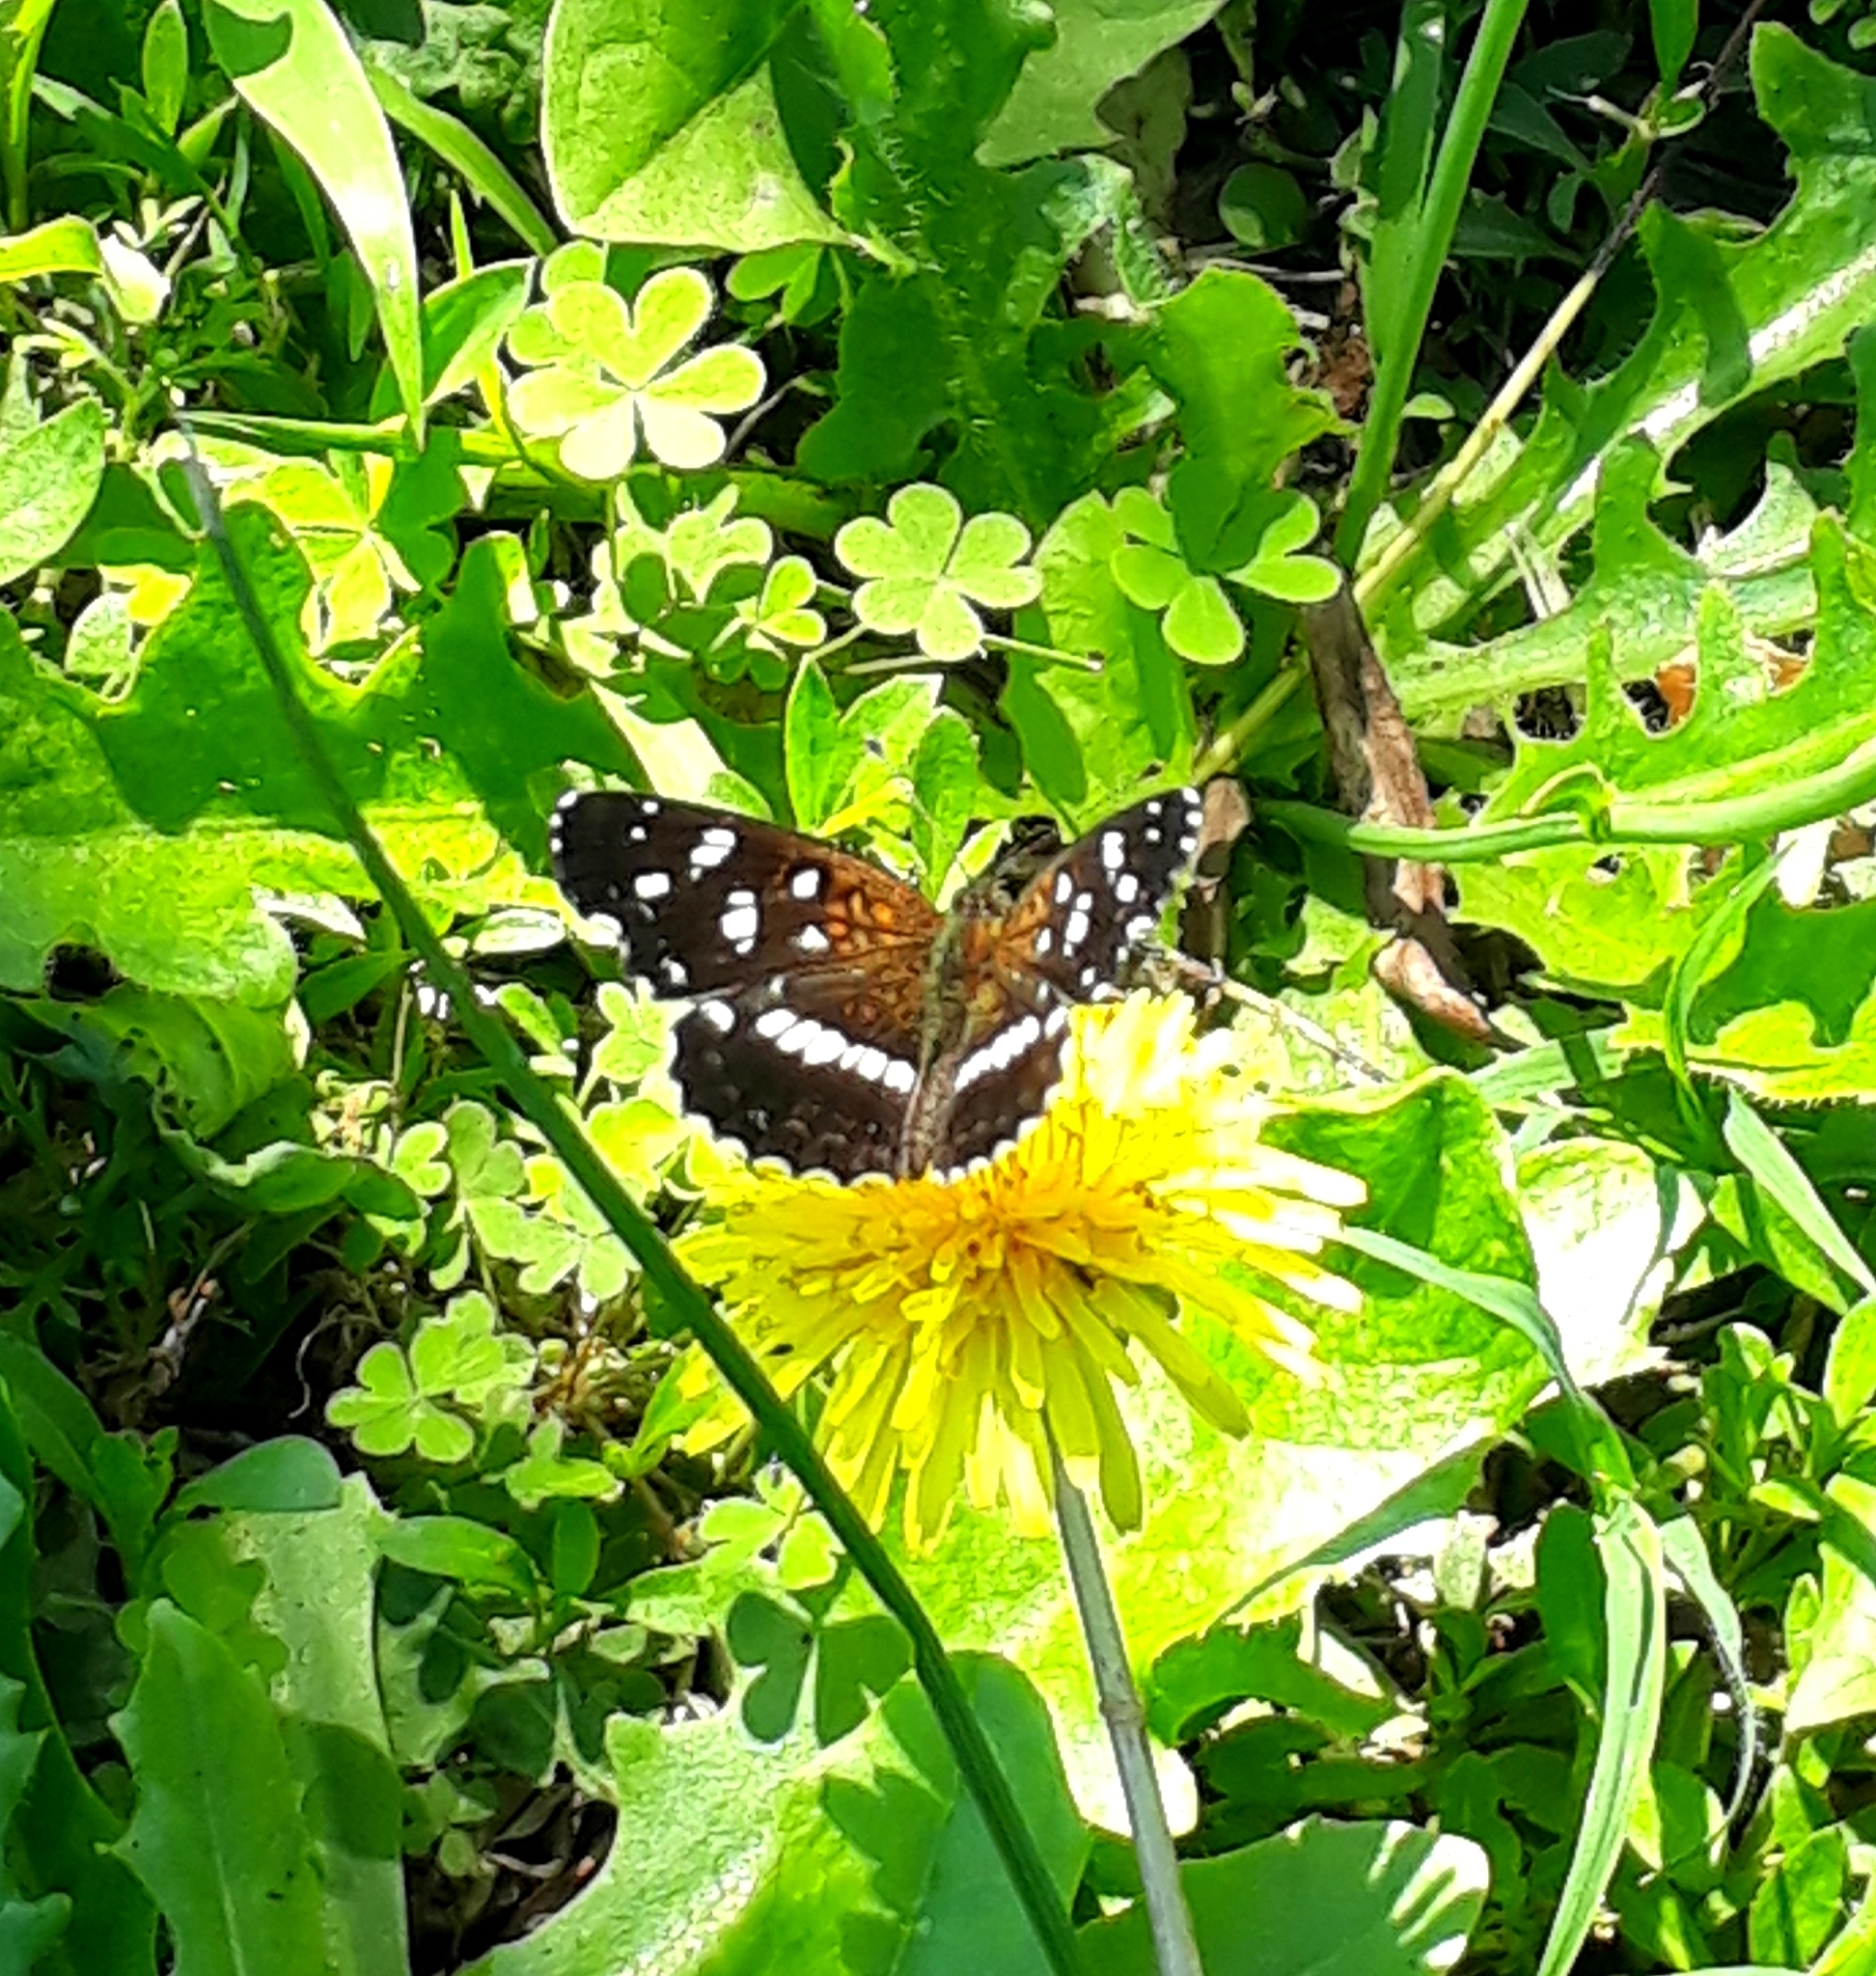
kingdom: Animalia
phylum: Arthropoda
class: Insecta
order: Lepidoptera
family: Nymphalidae
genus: Ortilia
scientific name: Ortilia ithra
